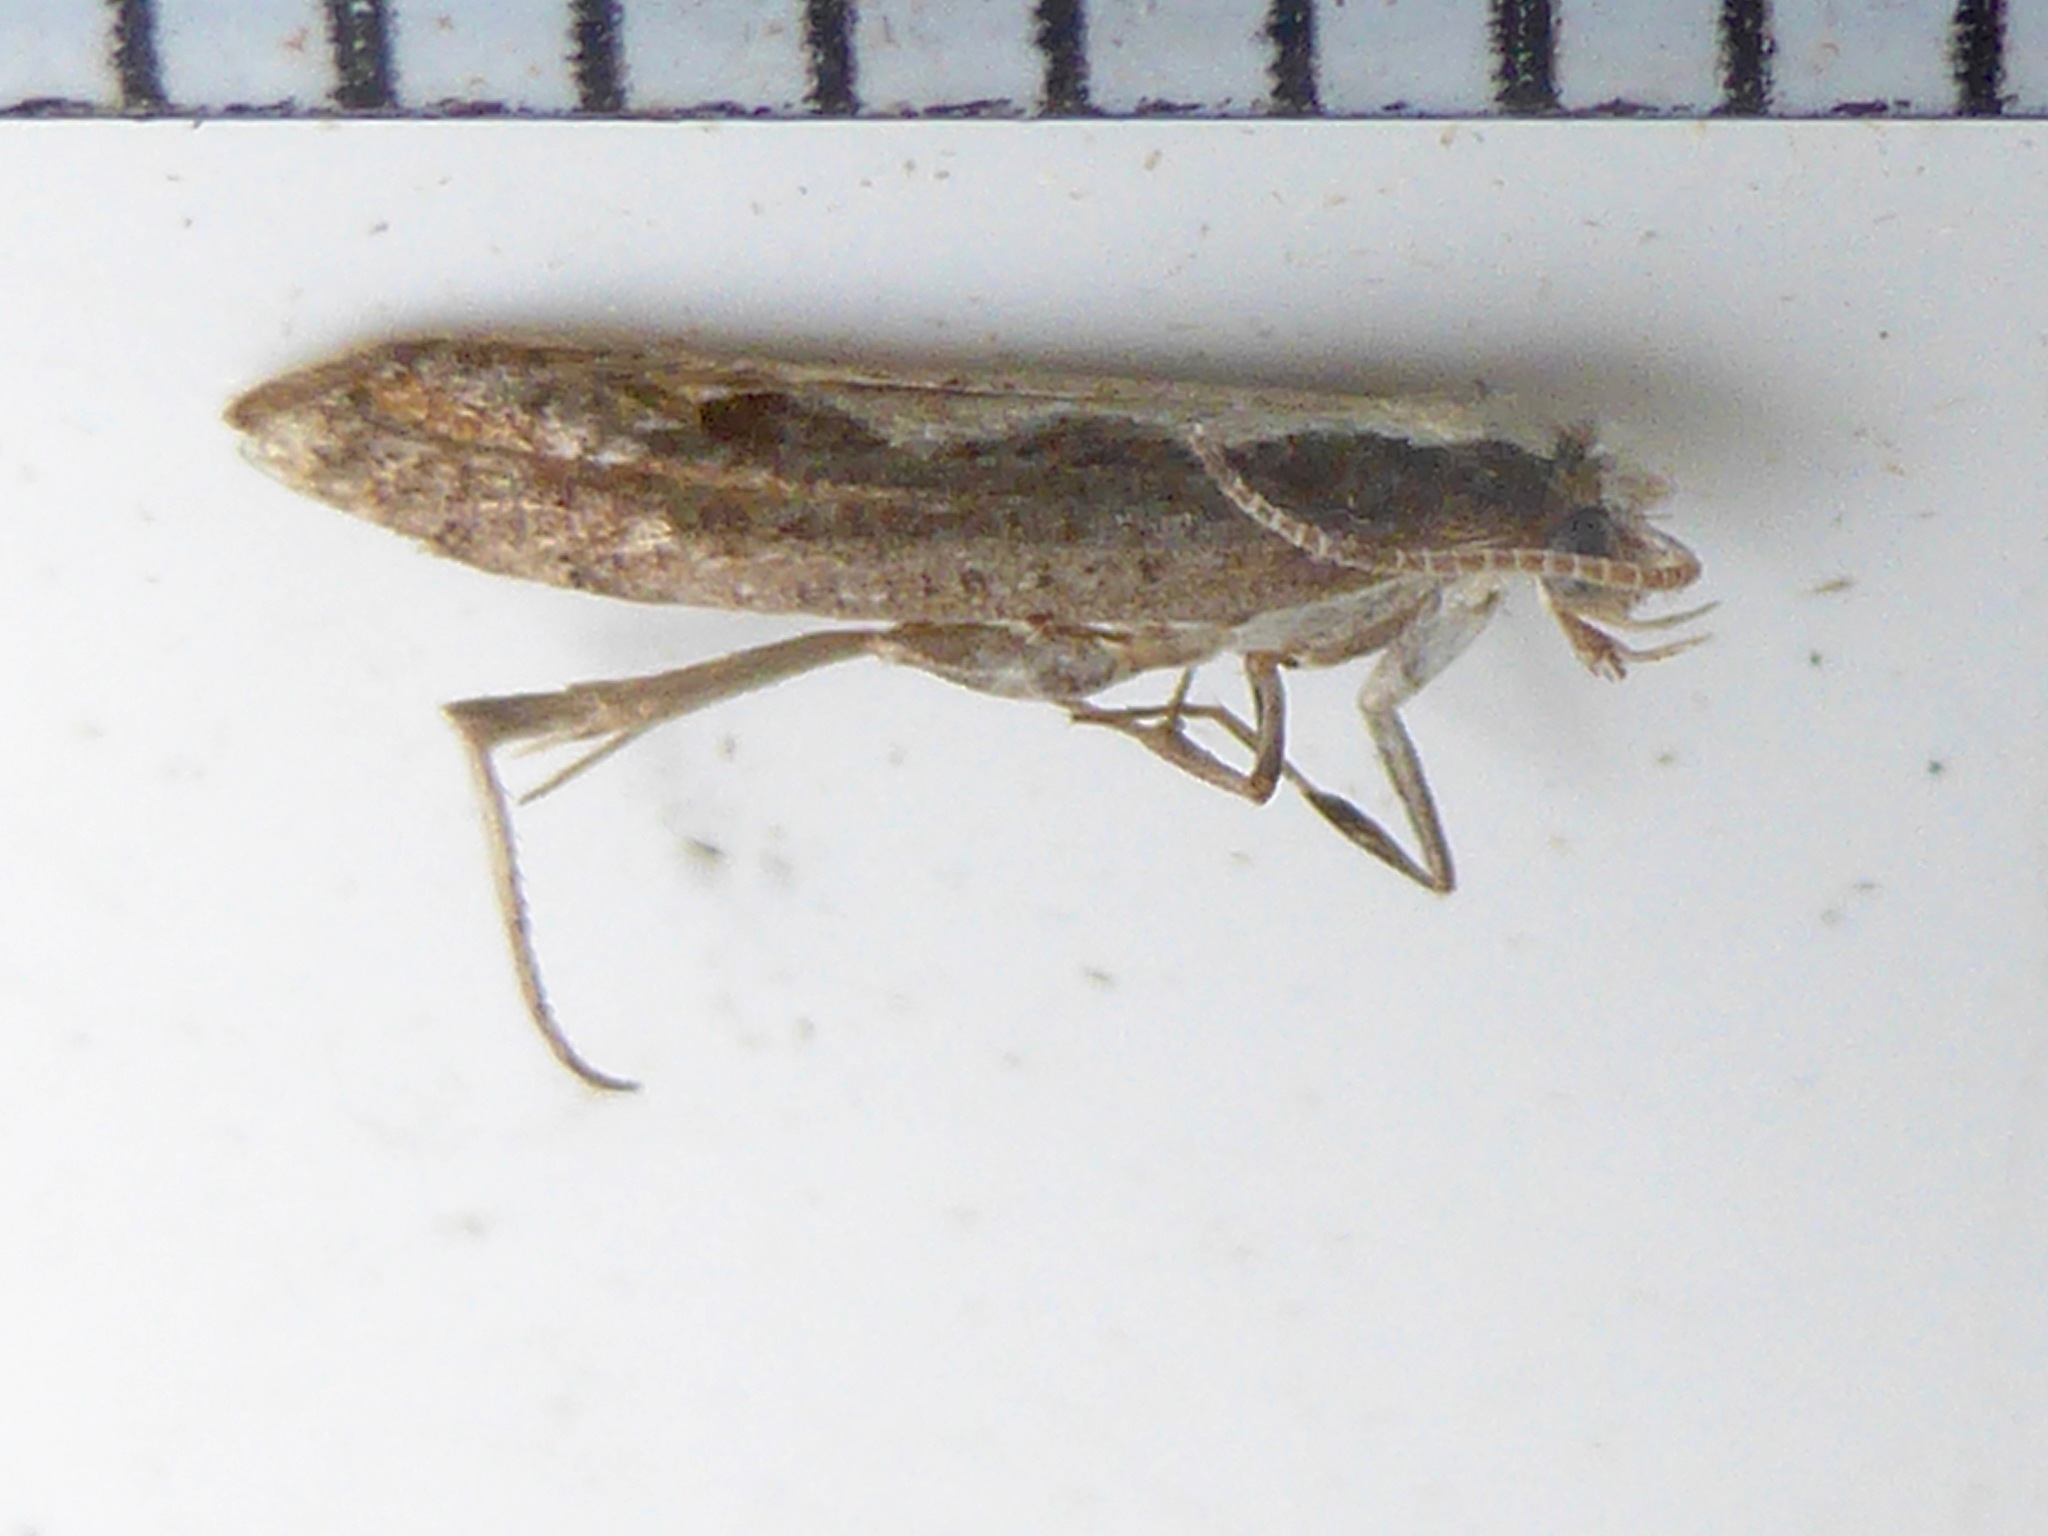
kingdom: Animalia
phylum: Arthropoda
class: Insecta
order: Lepidoptera
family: Plutellidae
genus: Plutella
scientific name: Plutella xylostella
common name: Diamond-back moth
